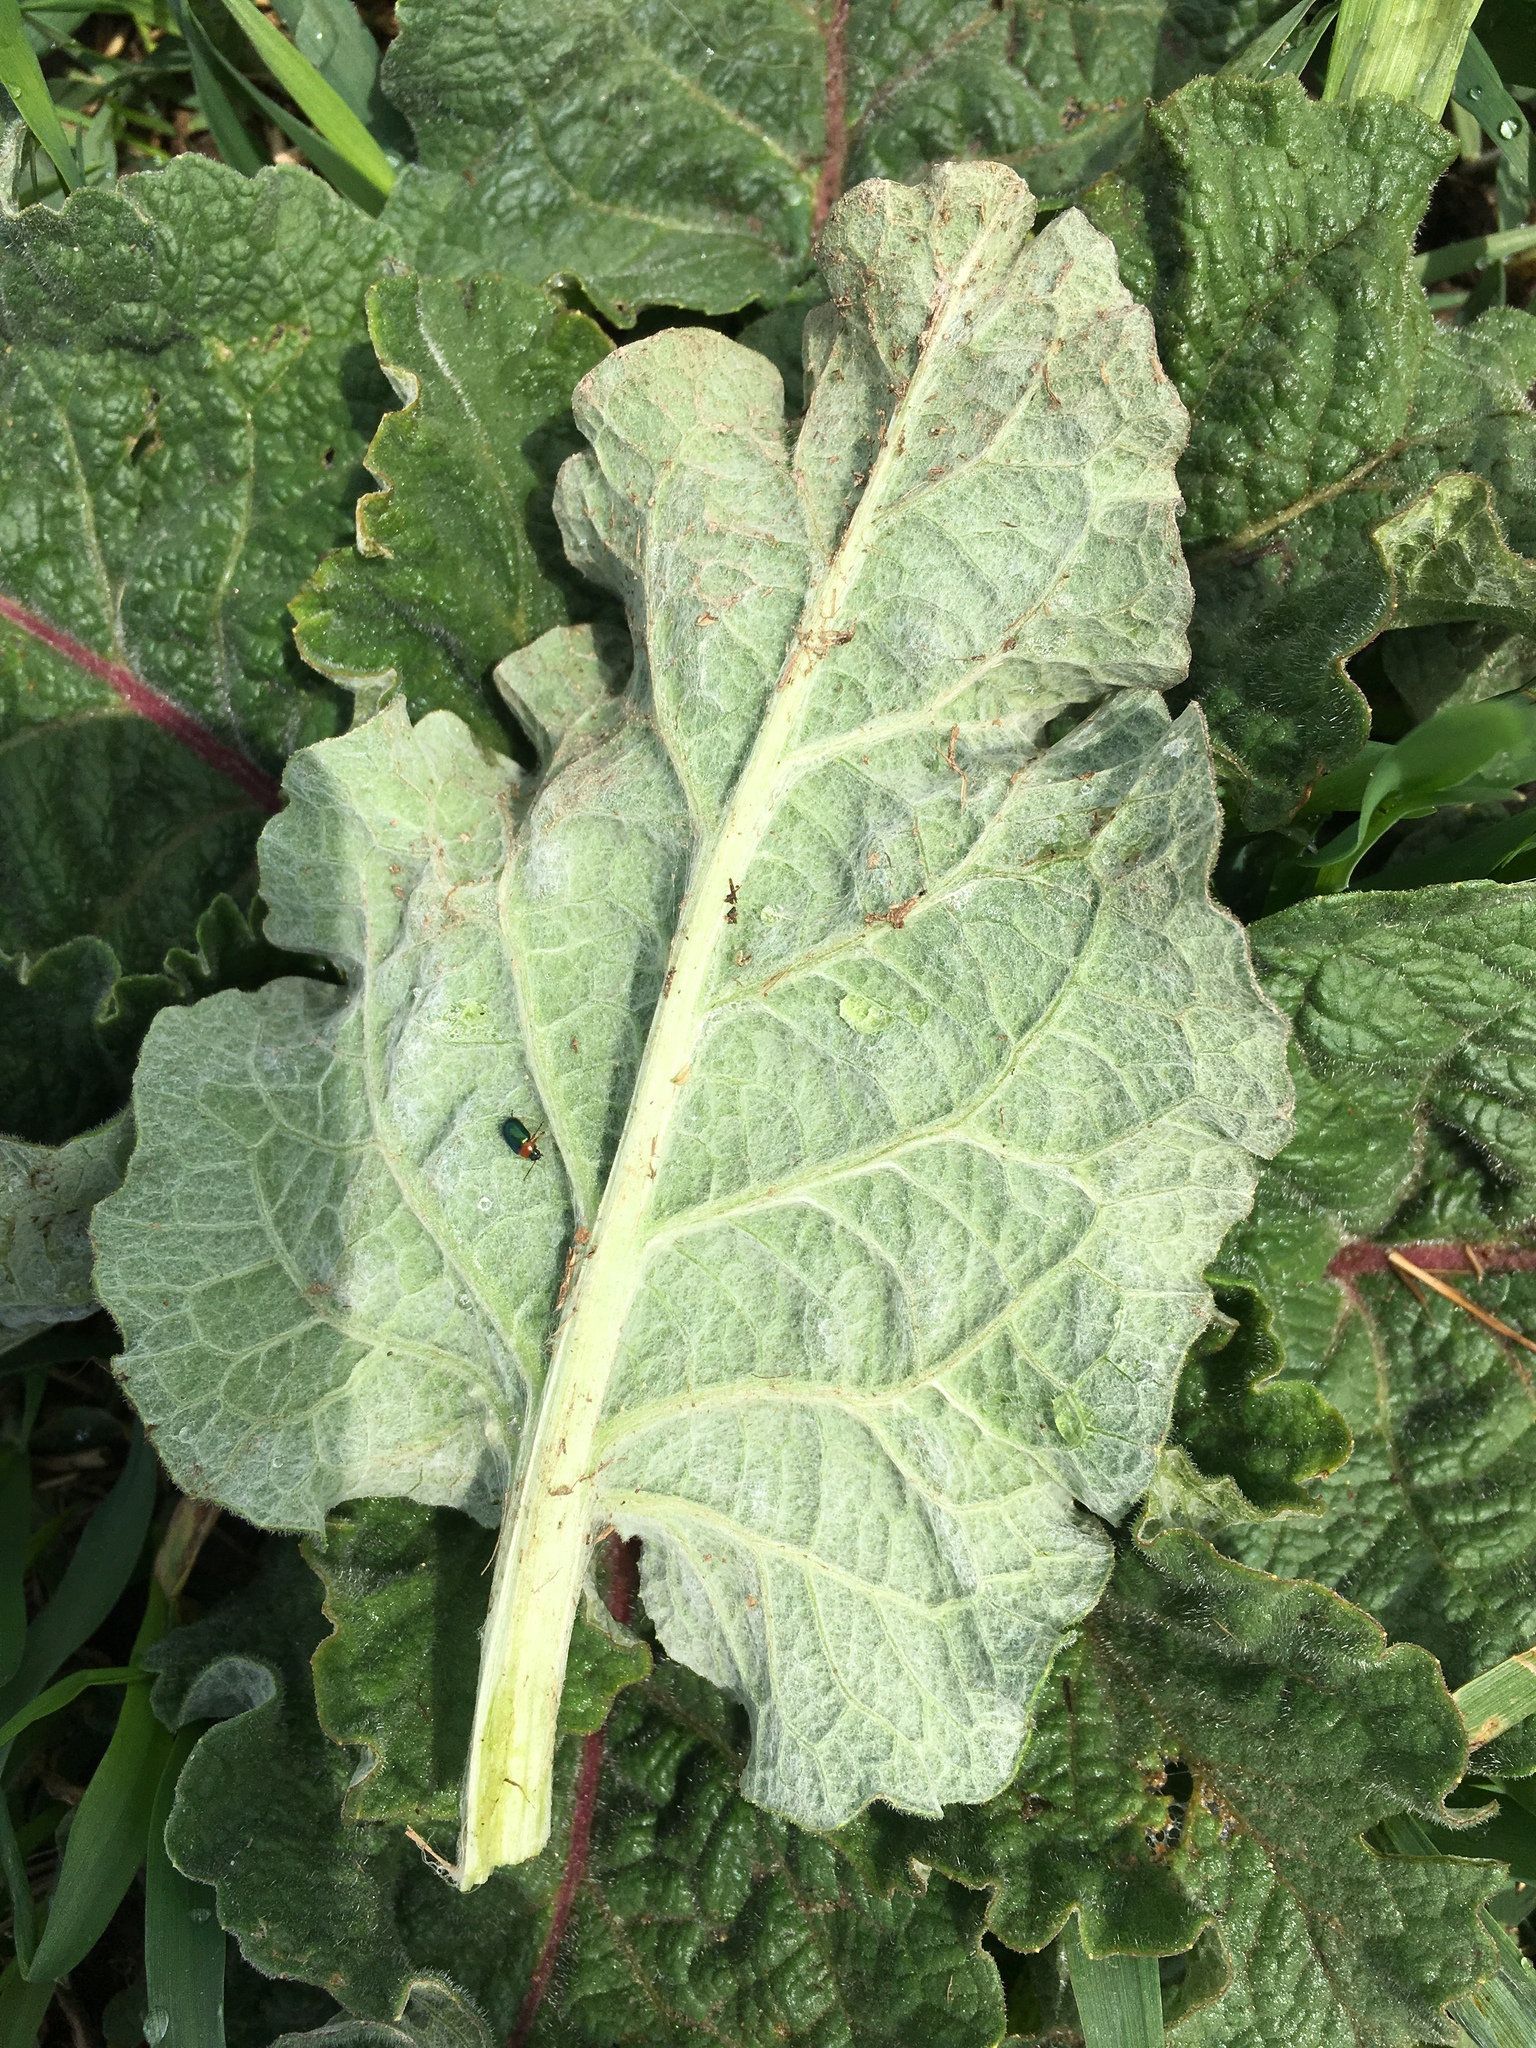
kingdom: Plantae
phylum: Tracheophyta
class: Magnoliopsida
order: Asterales
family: Asteraceae
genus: Arctium
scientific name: Arctium minus
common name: Lesser burdock
